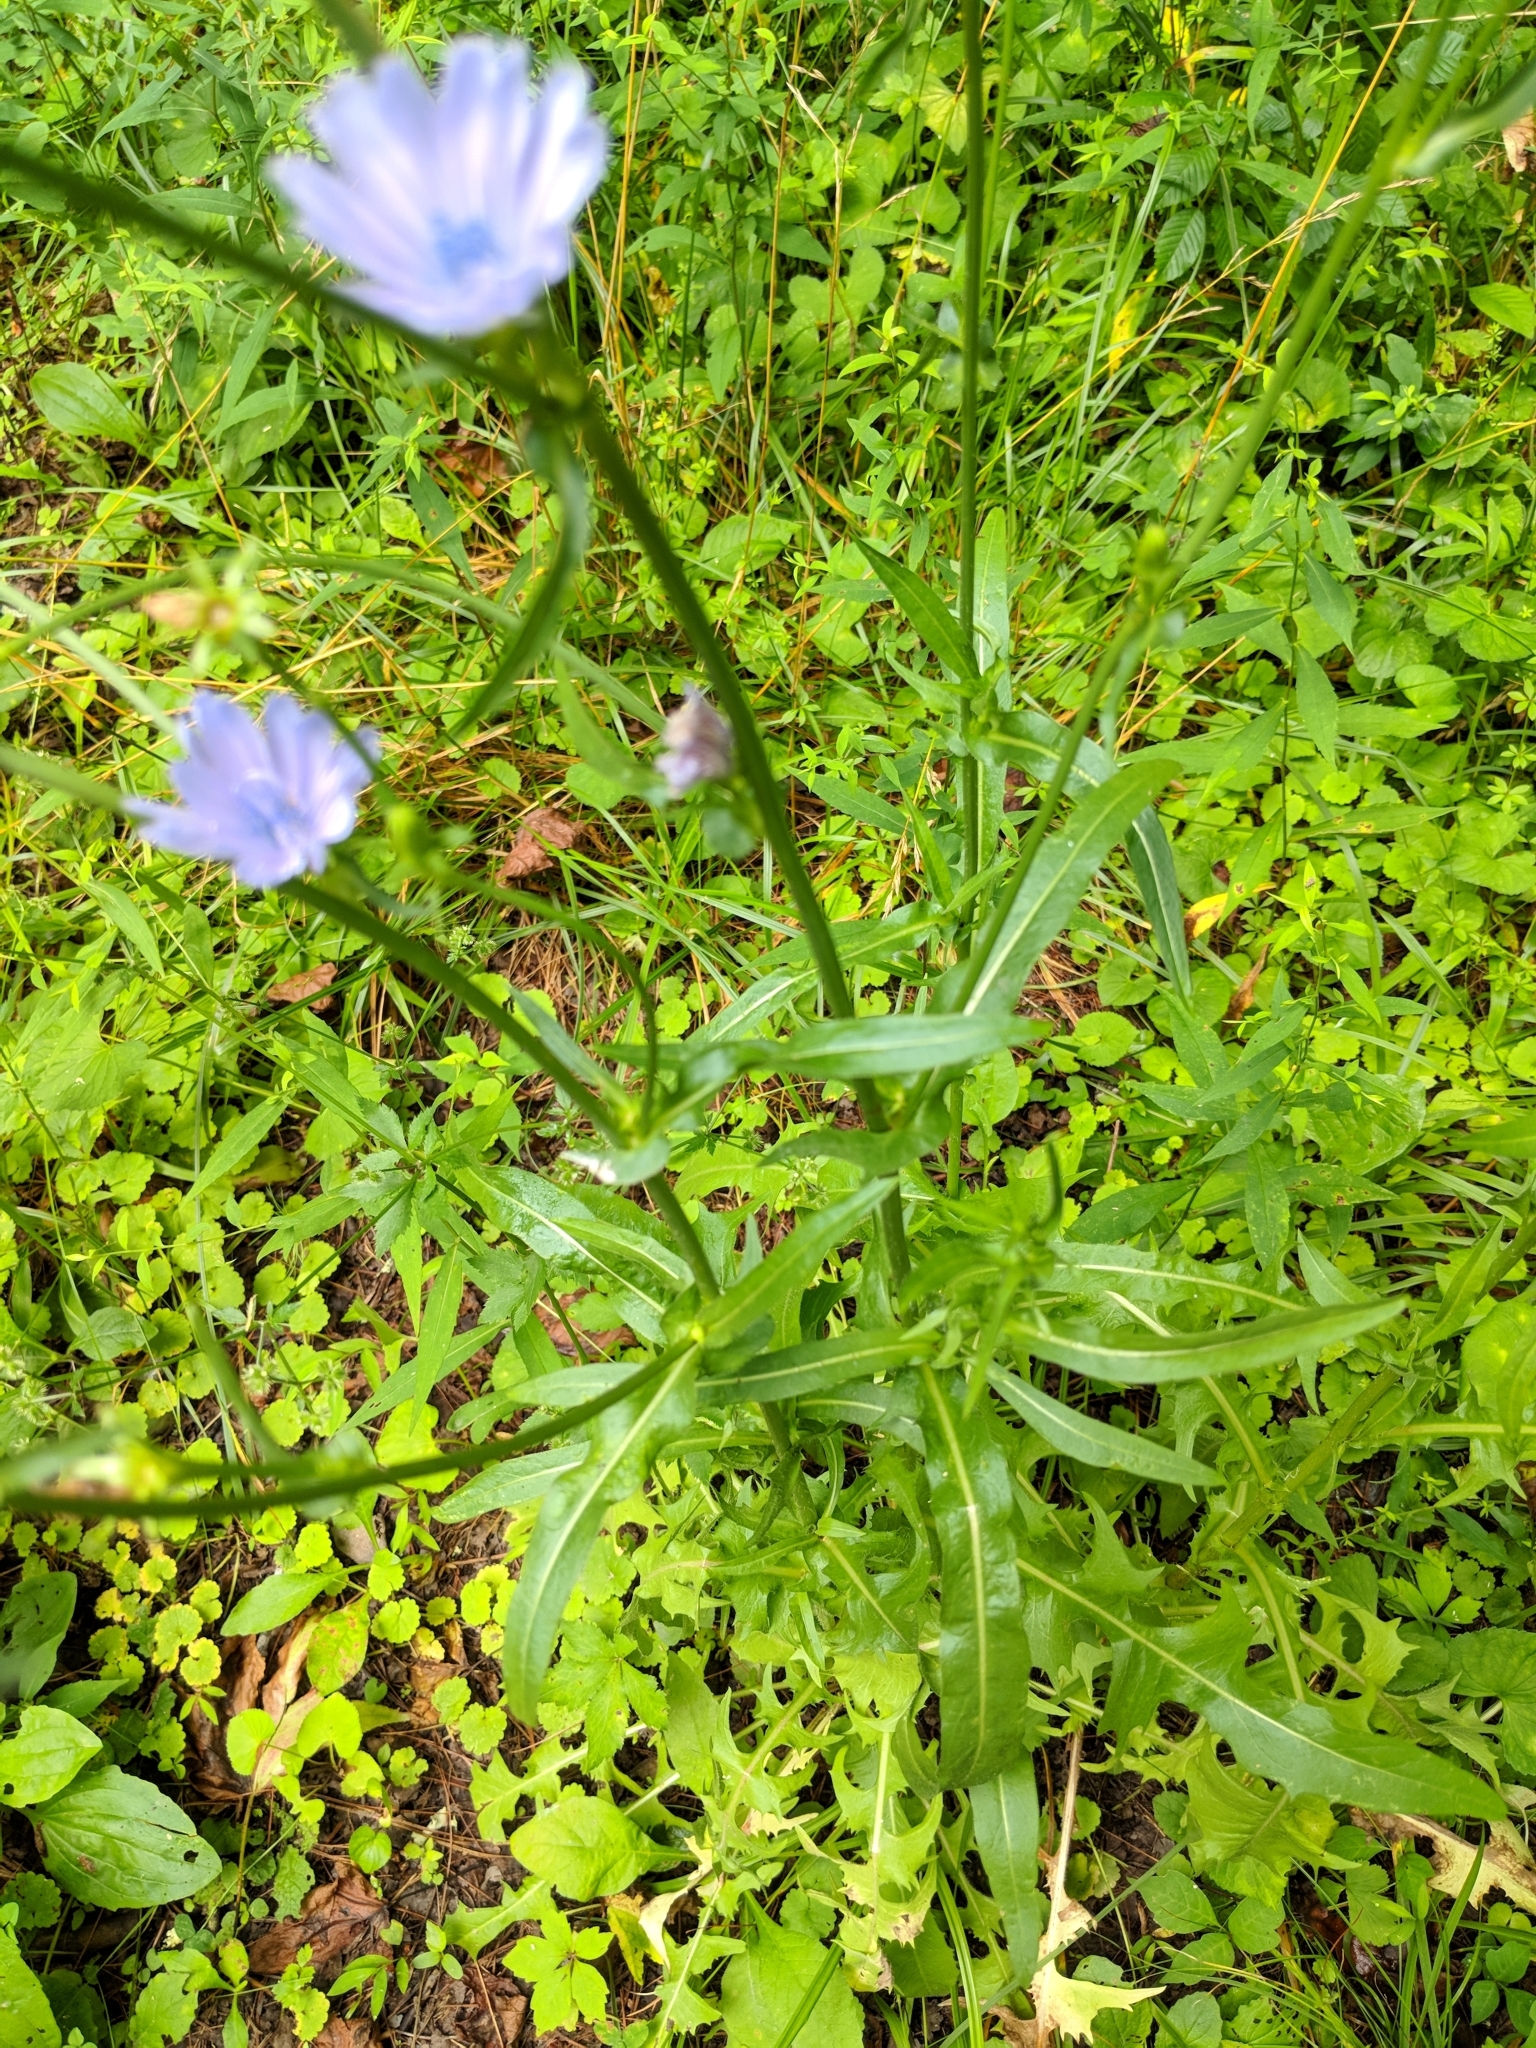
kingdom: Plantae
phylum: Tracheophyta
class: Magnoliopsida
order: Asterales
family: Asteraceae
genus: Cichorium
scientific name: Cichorium intybus
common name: Chicory
